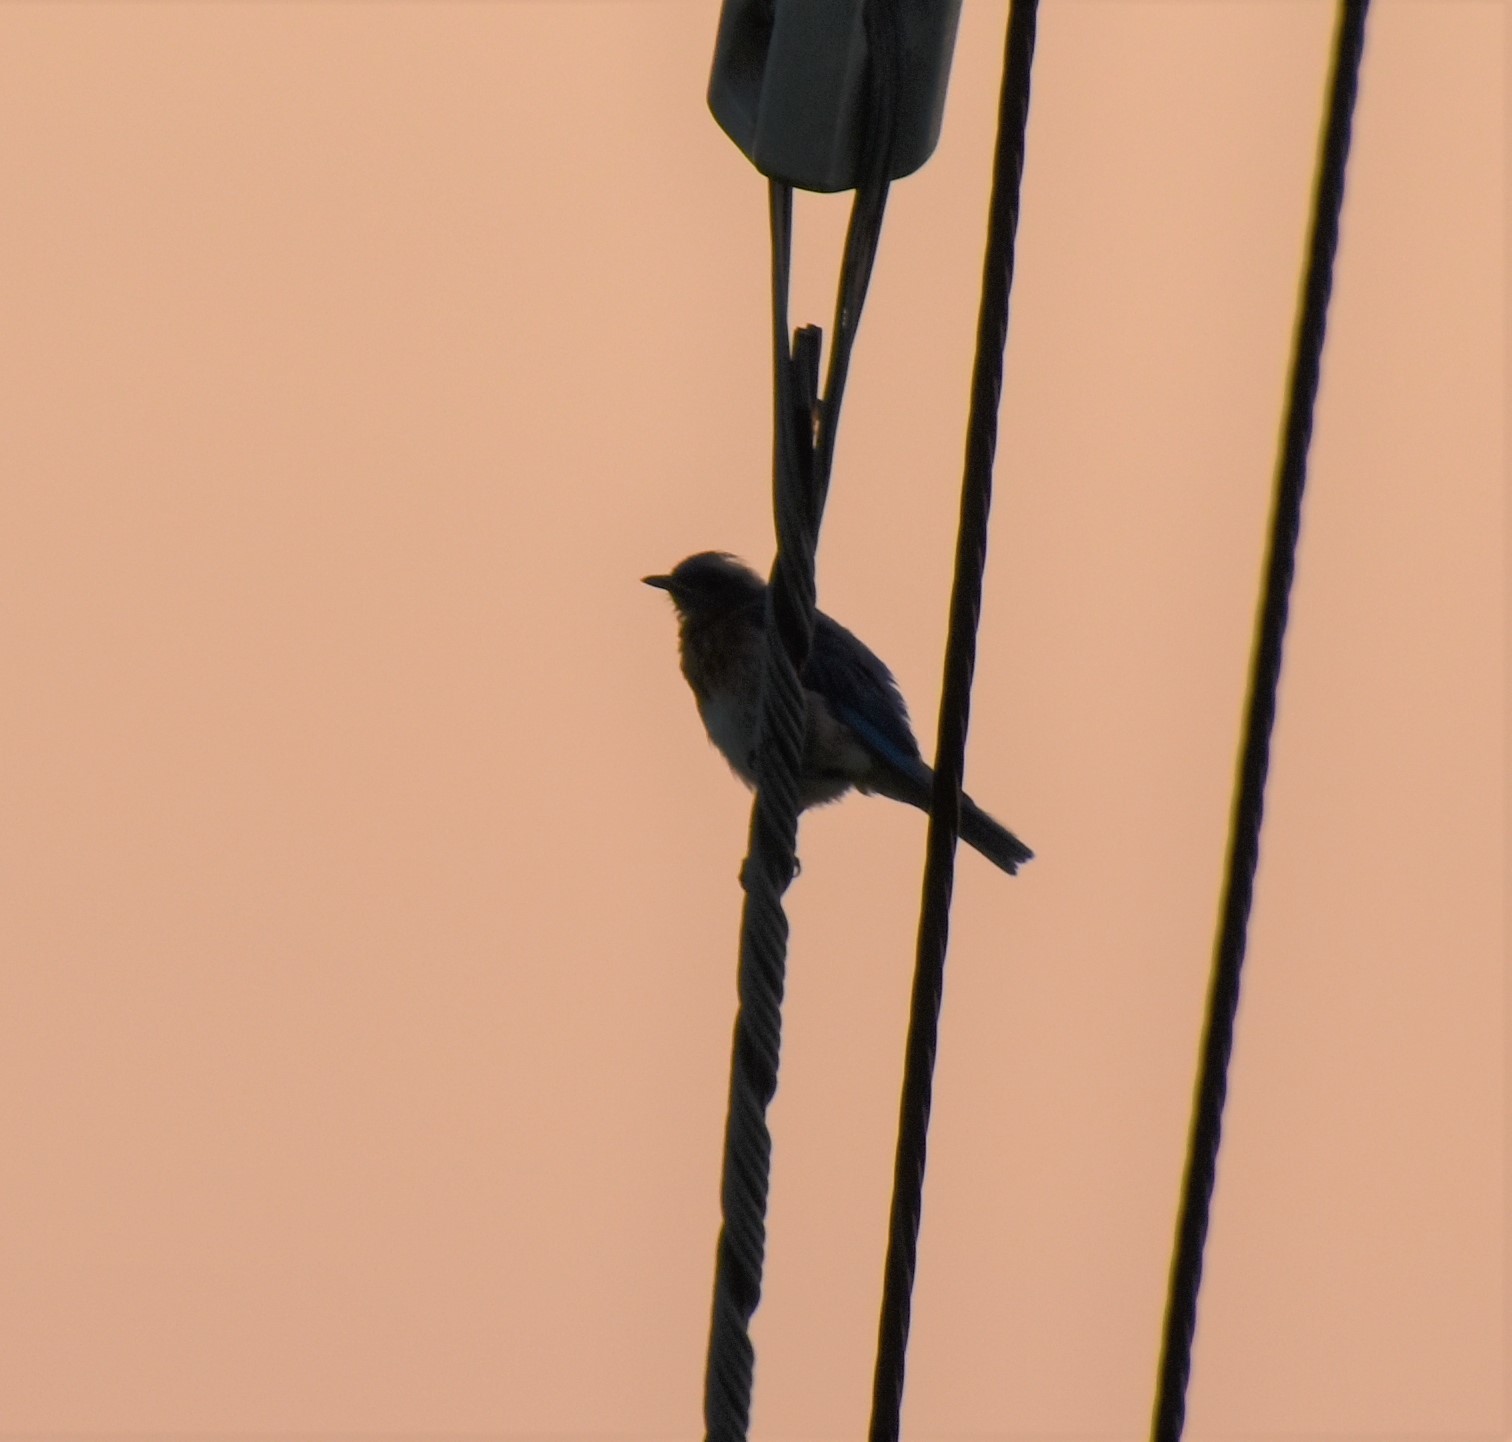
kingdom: Animalia
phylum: Chordata
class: Aves
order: Passeriformes
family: Turdidae
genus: Sialia
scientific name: Sialia sialis
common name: Eastern bluebird
